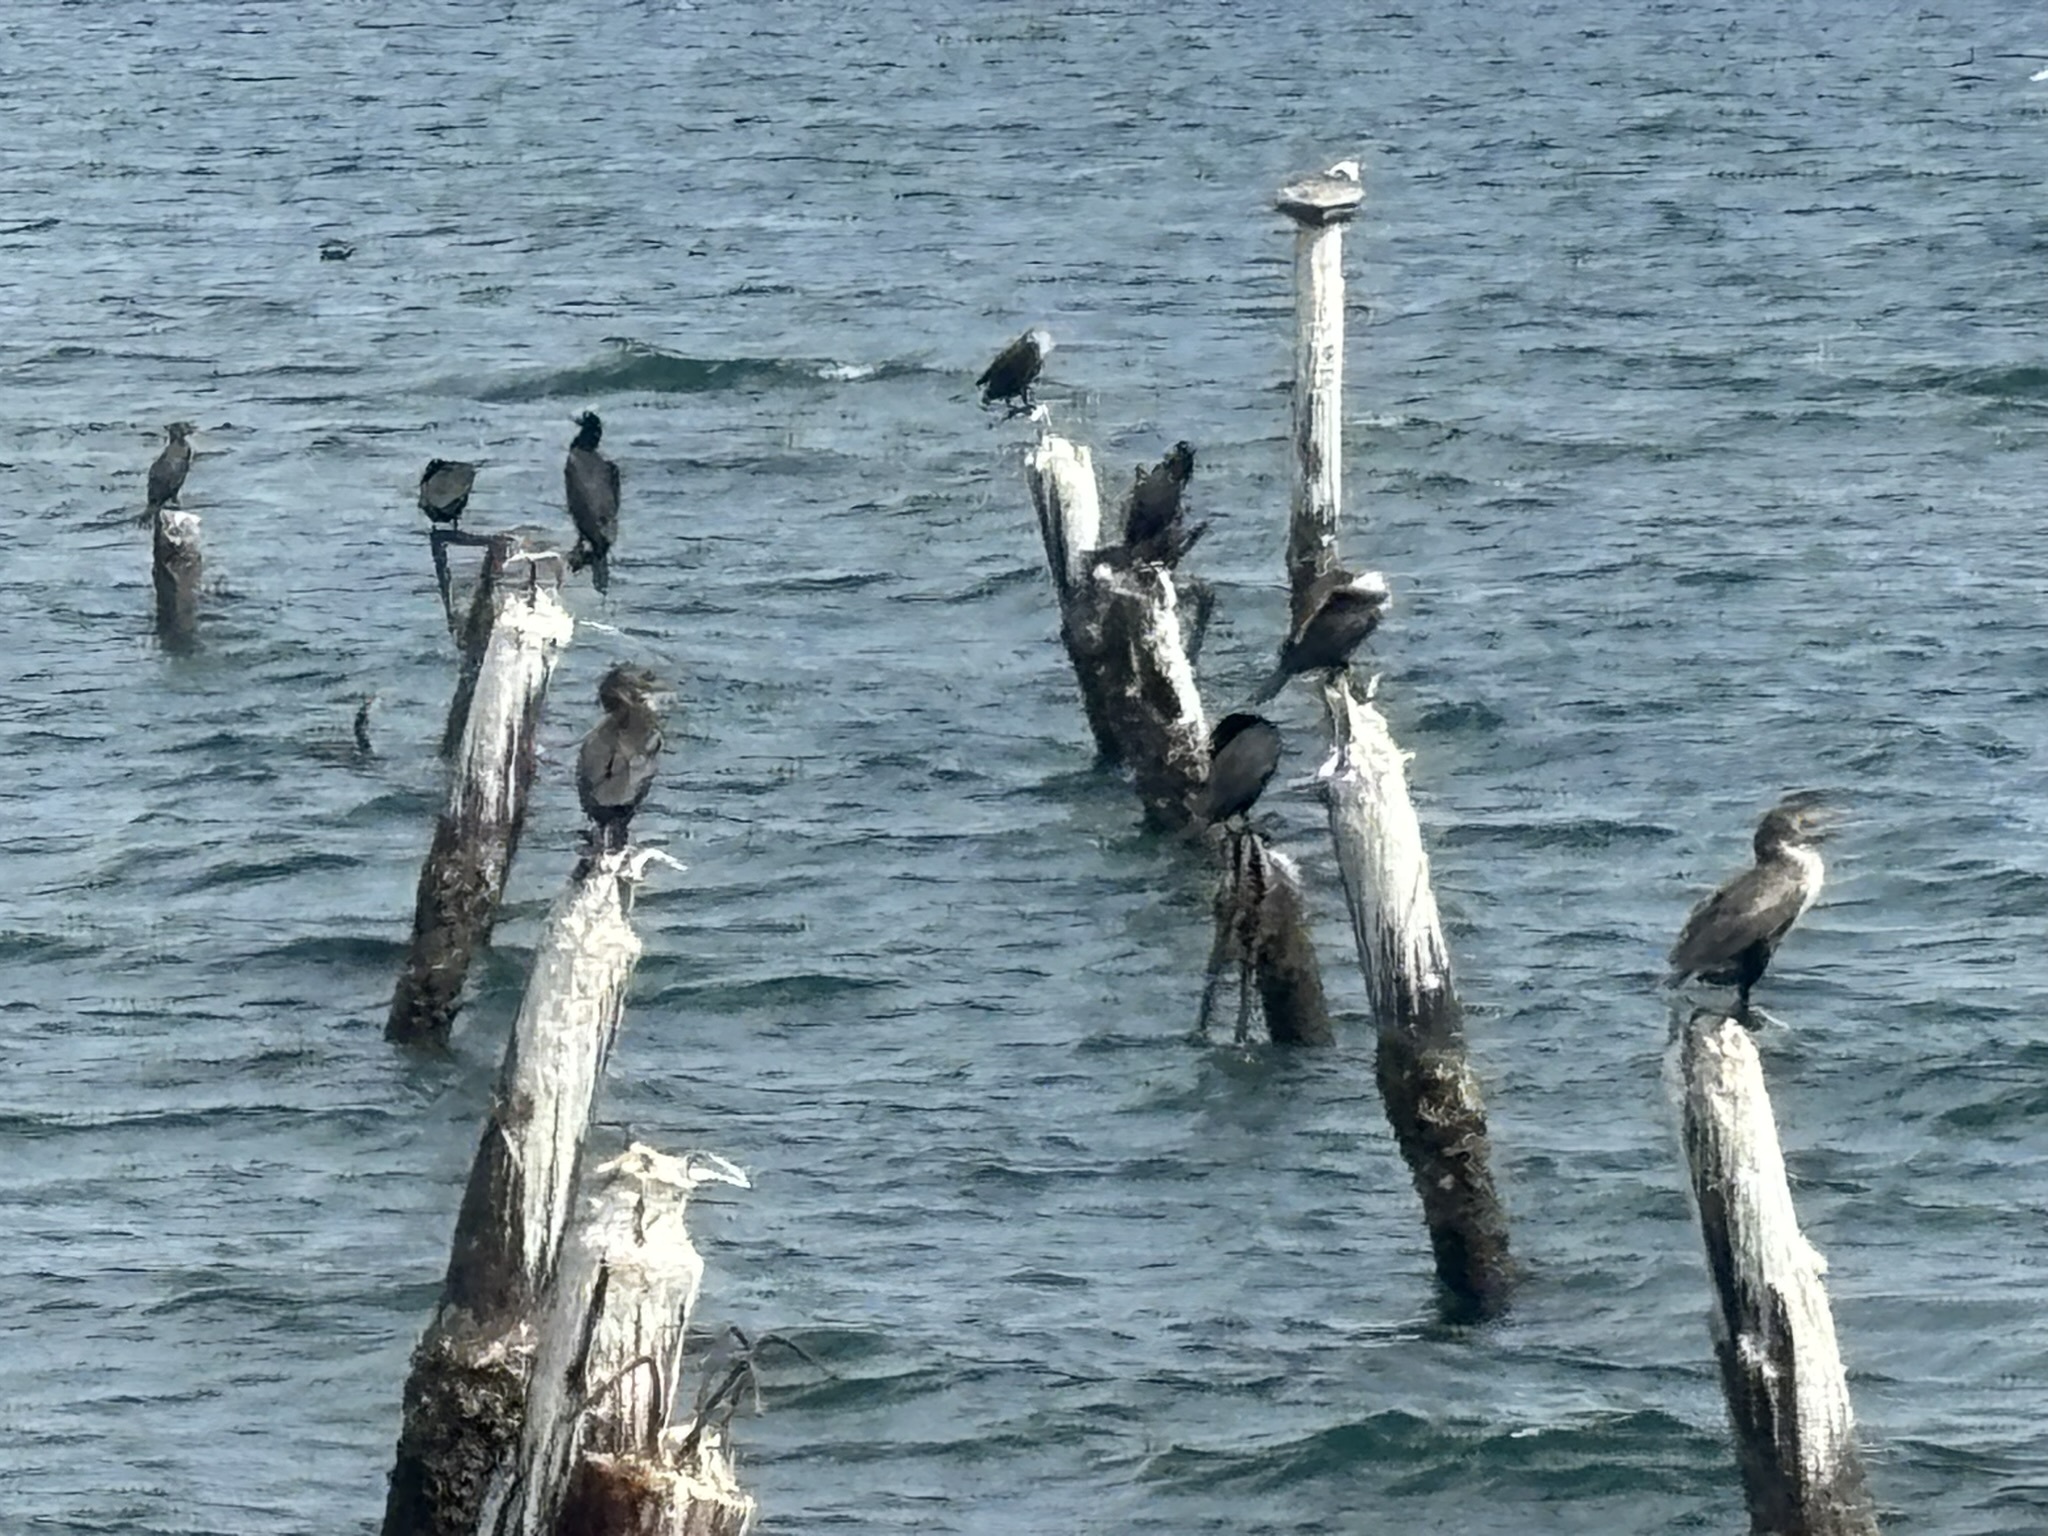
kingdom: Animalia
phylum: Chordata
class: Aves
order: Suliformes
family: Phalacrocoracidae
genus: Urile
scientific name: Urile penicillatus
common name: Brandt's cormorant
